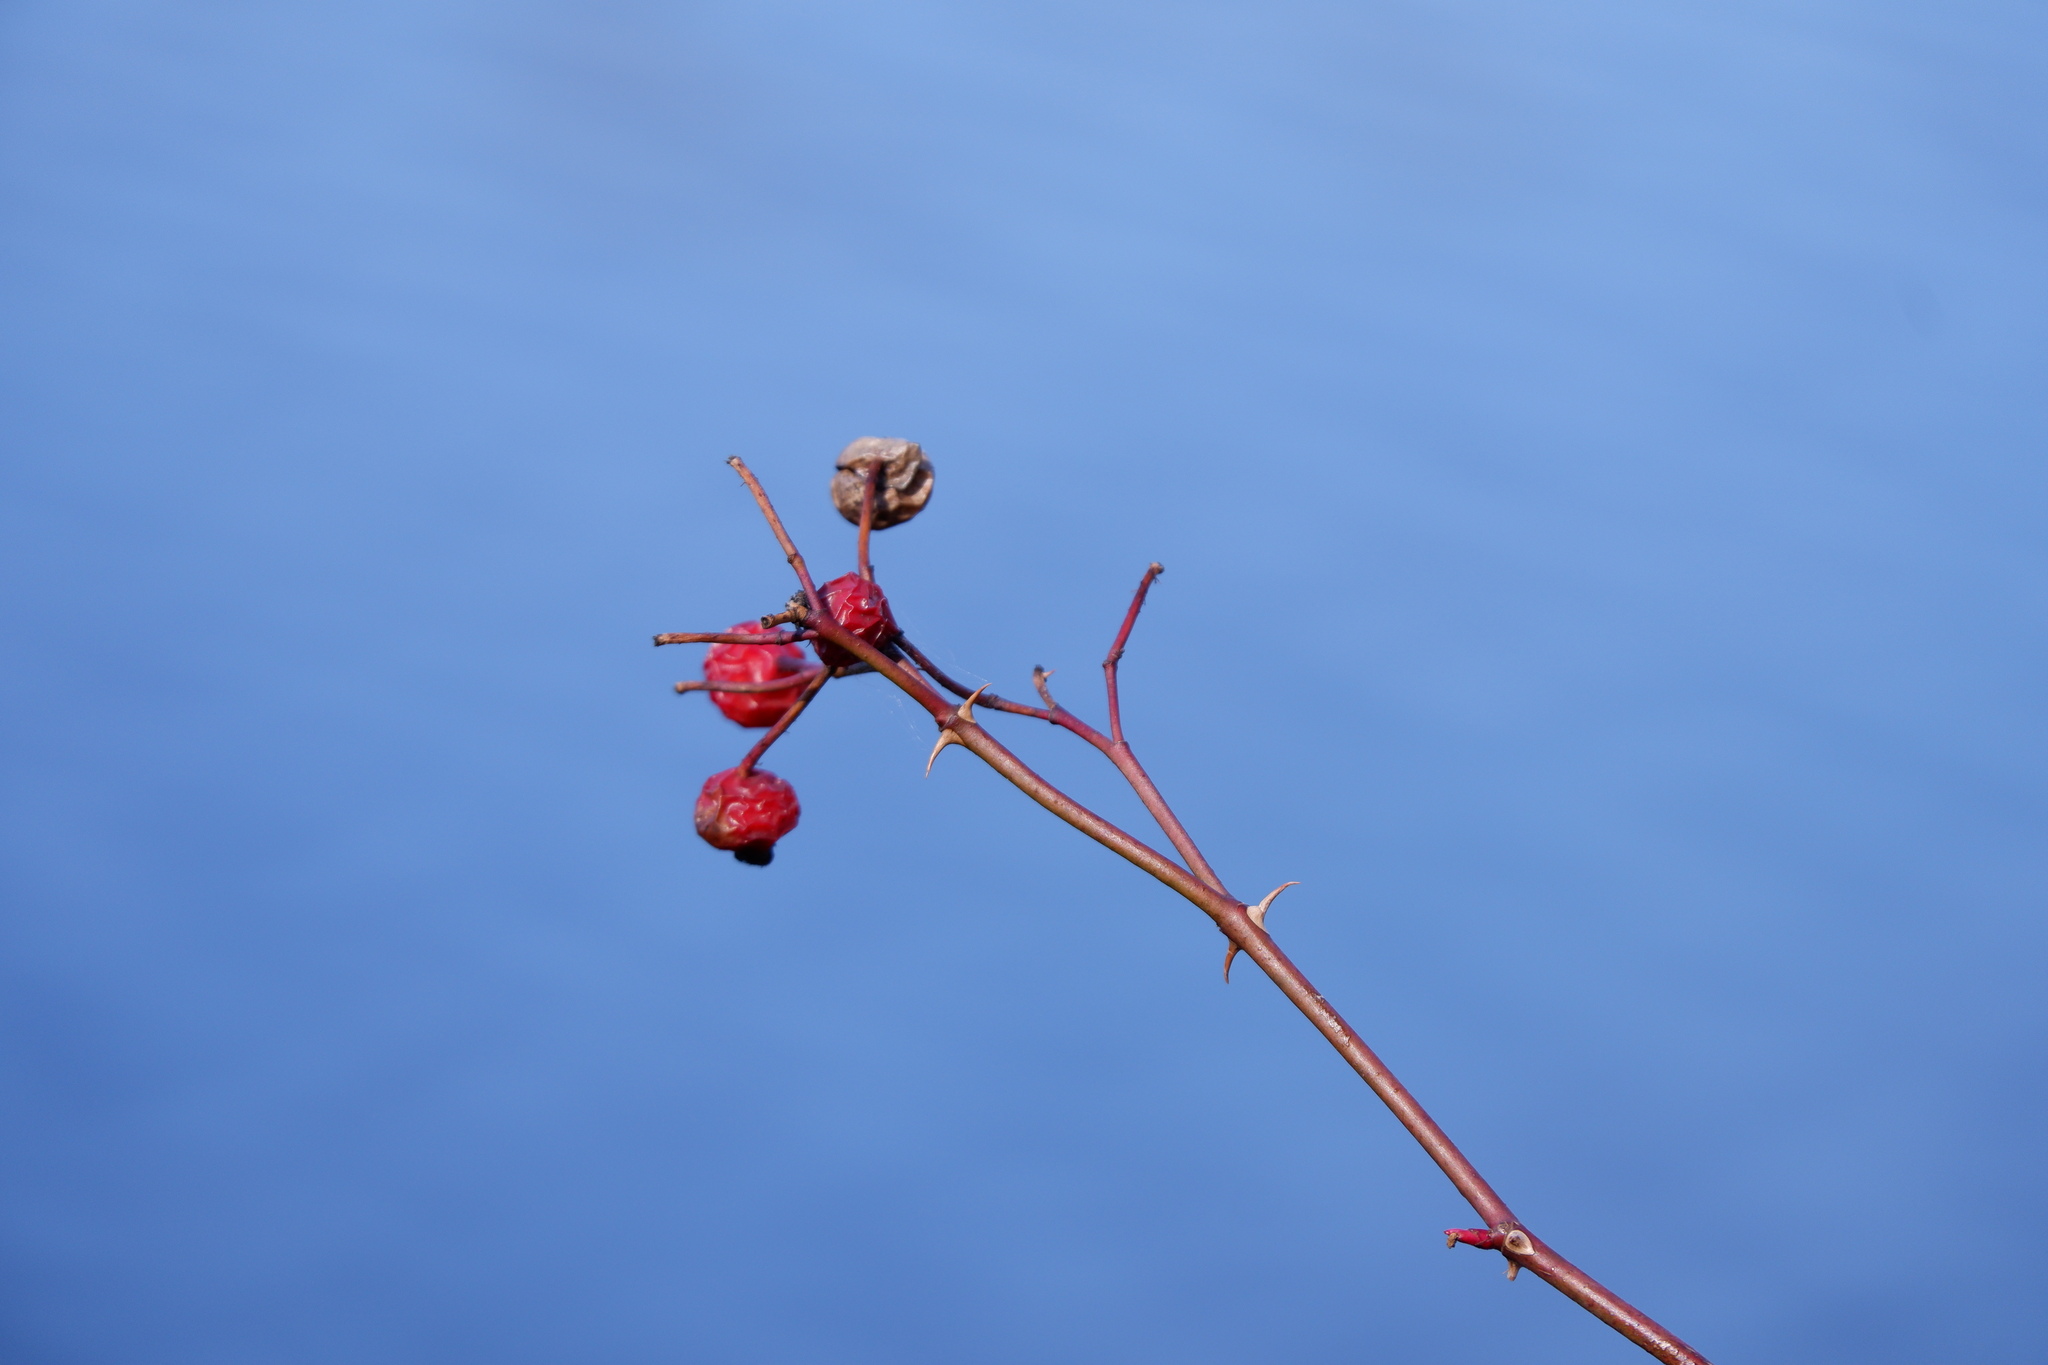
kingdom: Plantae
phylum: Tracheophyta
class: Magnoliopsida
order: Rosales
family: Rosaceae
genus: Rosa
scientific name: Rosa palustris
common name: Swamp rose
